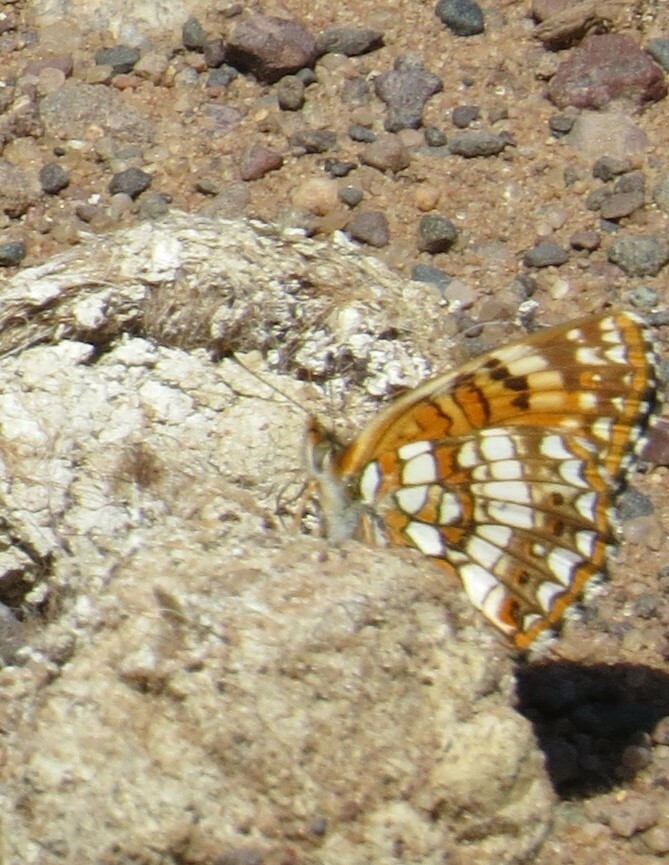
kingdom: Animalia
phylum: Arthropoda
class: Insecta
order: Lepidoptera
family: Nymphalidae
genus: Chlosyne
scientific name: Chlosyne harrisii
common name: Harris's checkerspot
